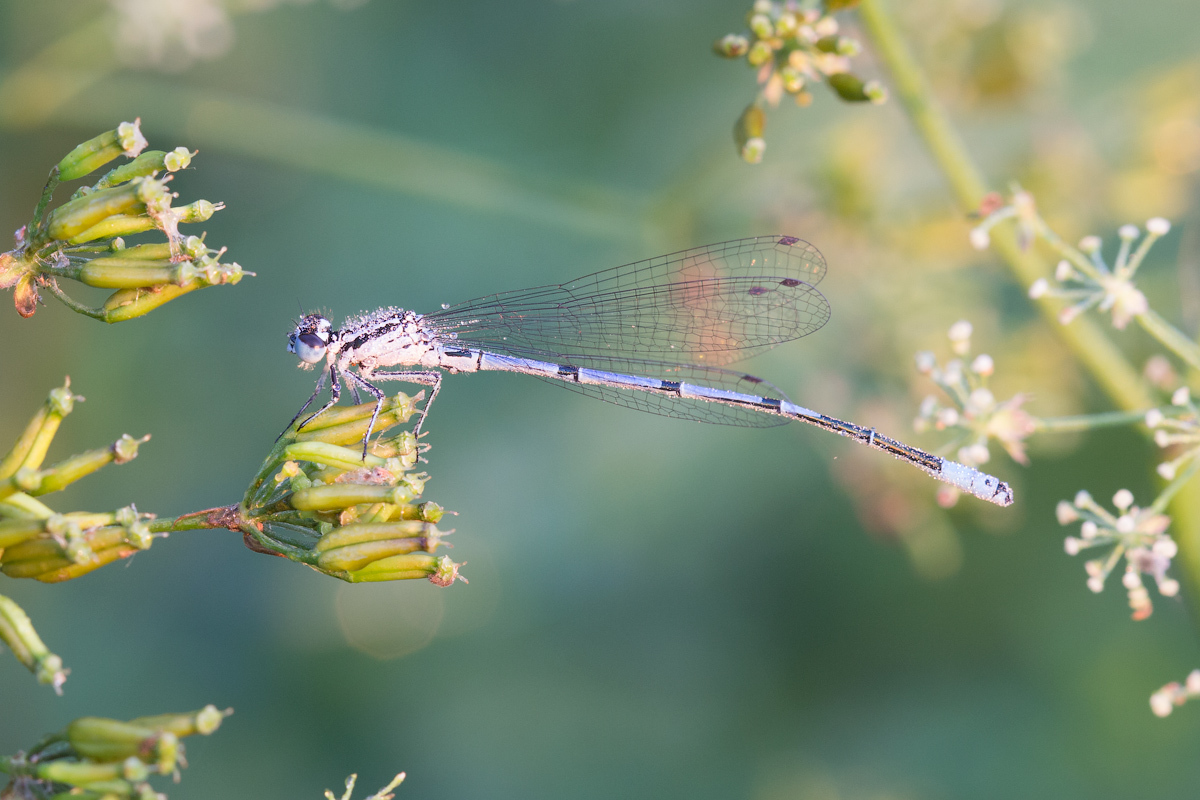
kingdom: Animalia
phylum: Arthropoda
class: Insecta
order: Odonata
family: Coenagrionidae
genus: Coenagrion
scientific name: Coenagrion puella
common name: Azure damselfly
